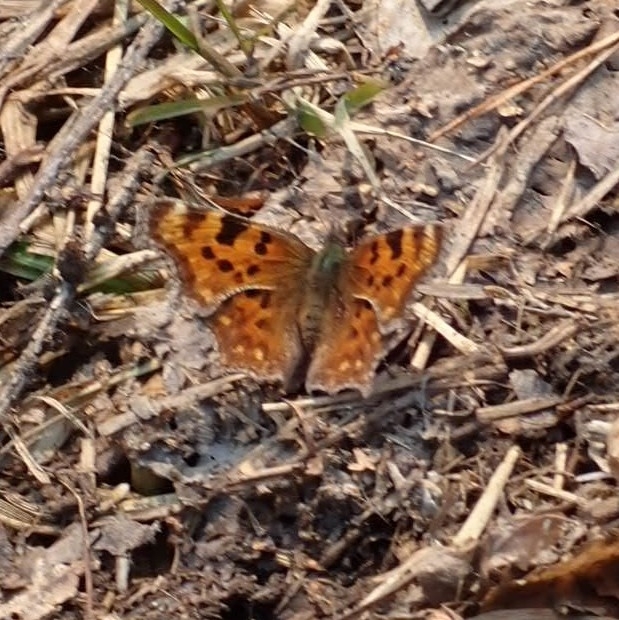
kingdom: Animalia
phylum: Arthropoda
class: Insecta
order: Lepidoptera
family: Nymphalidae
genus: Polygonia
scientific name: Polygonia c-album
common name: Comma
